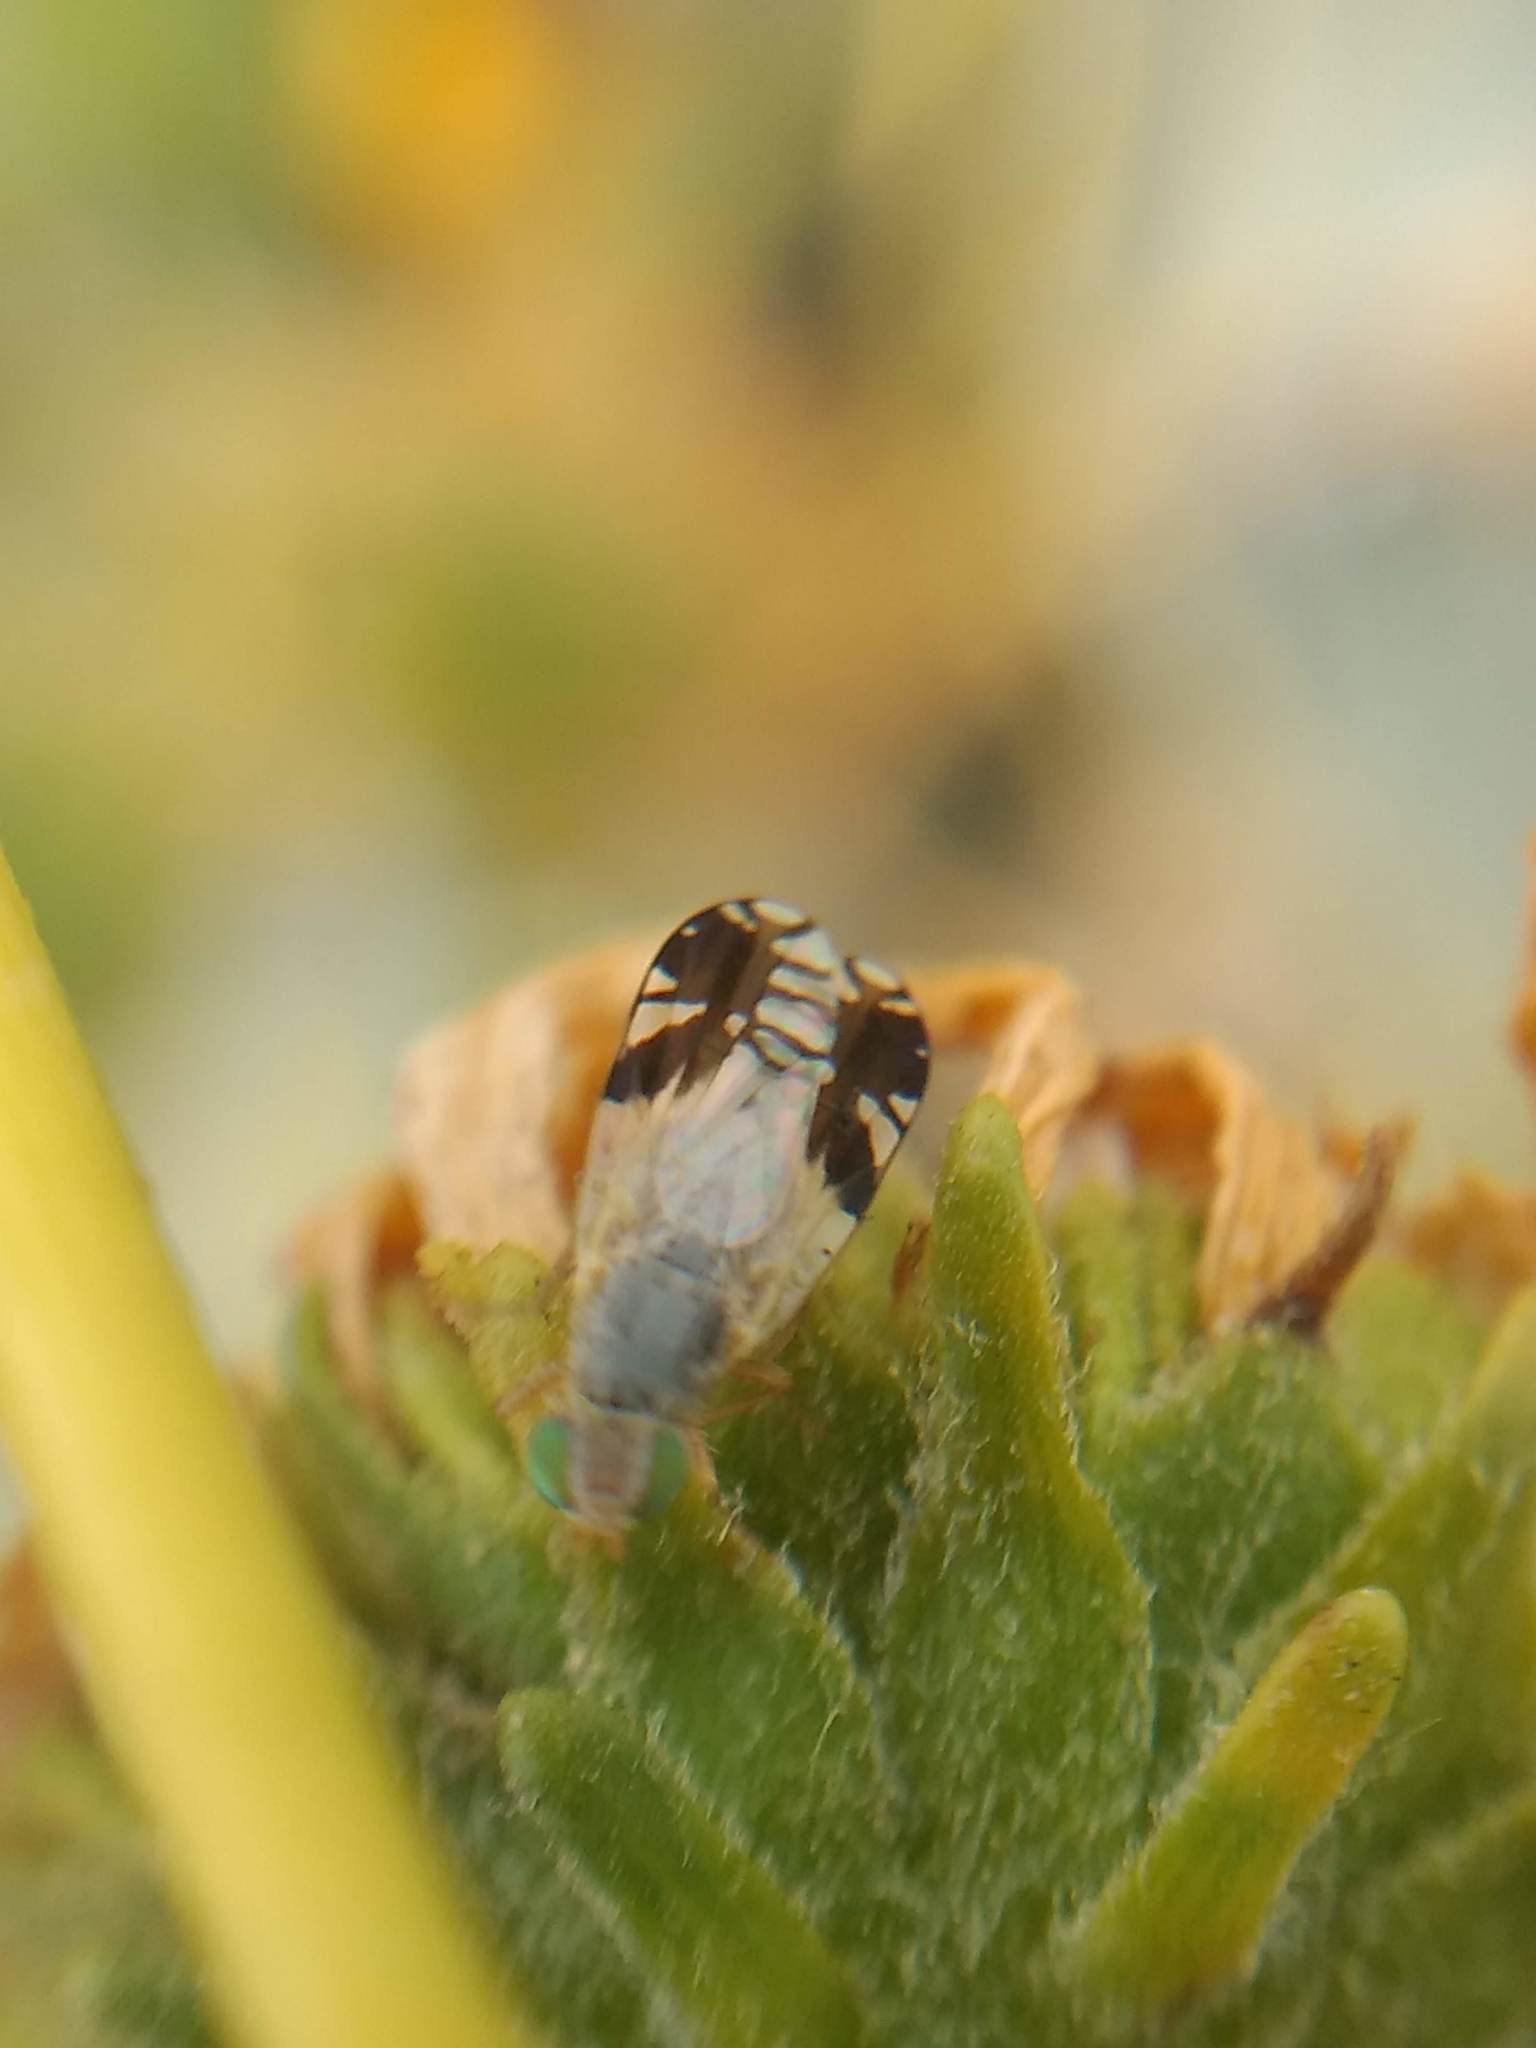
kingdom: Animalia
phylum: Arthropoda
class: Insecta
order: Diptera
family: Tephritidae
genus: Trupanea
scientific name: Trupanea nigricornis
